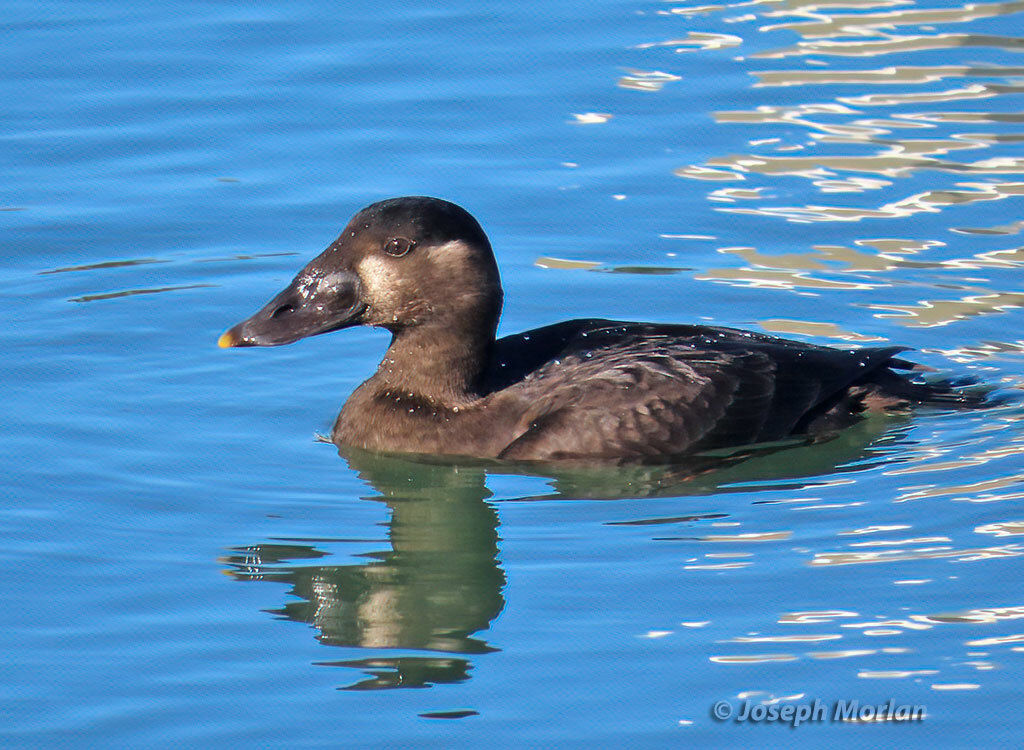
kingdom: Animalia
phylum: Chordata
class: Aves
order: Anseriformes
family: Anatidae
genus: Melanitta
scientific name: Melanitta perspicillata
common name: Surf scoter
